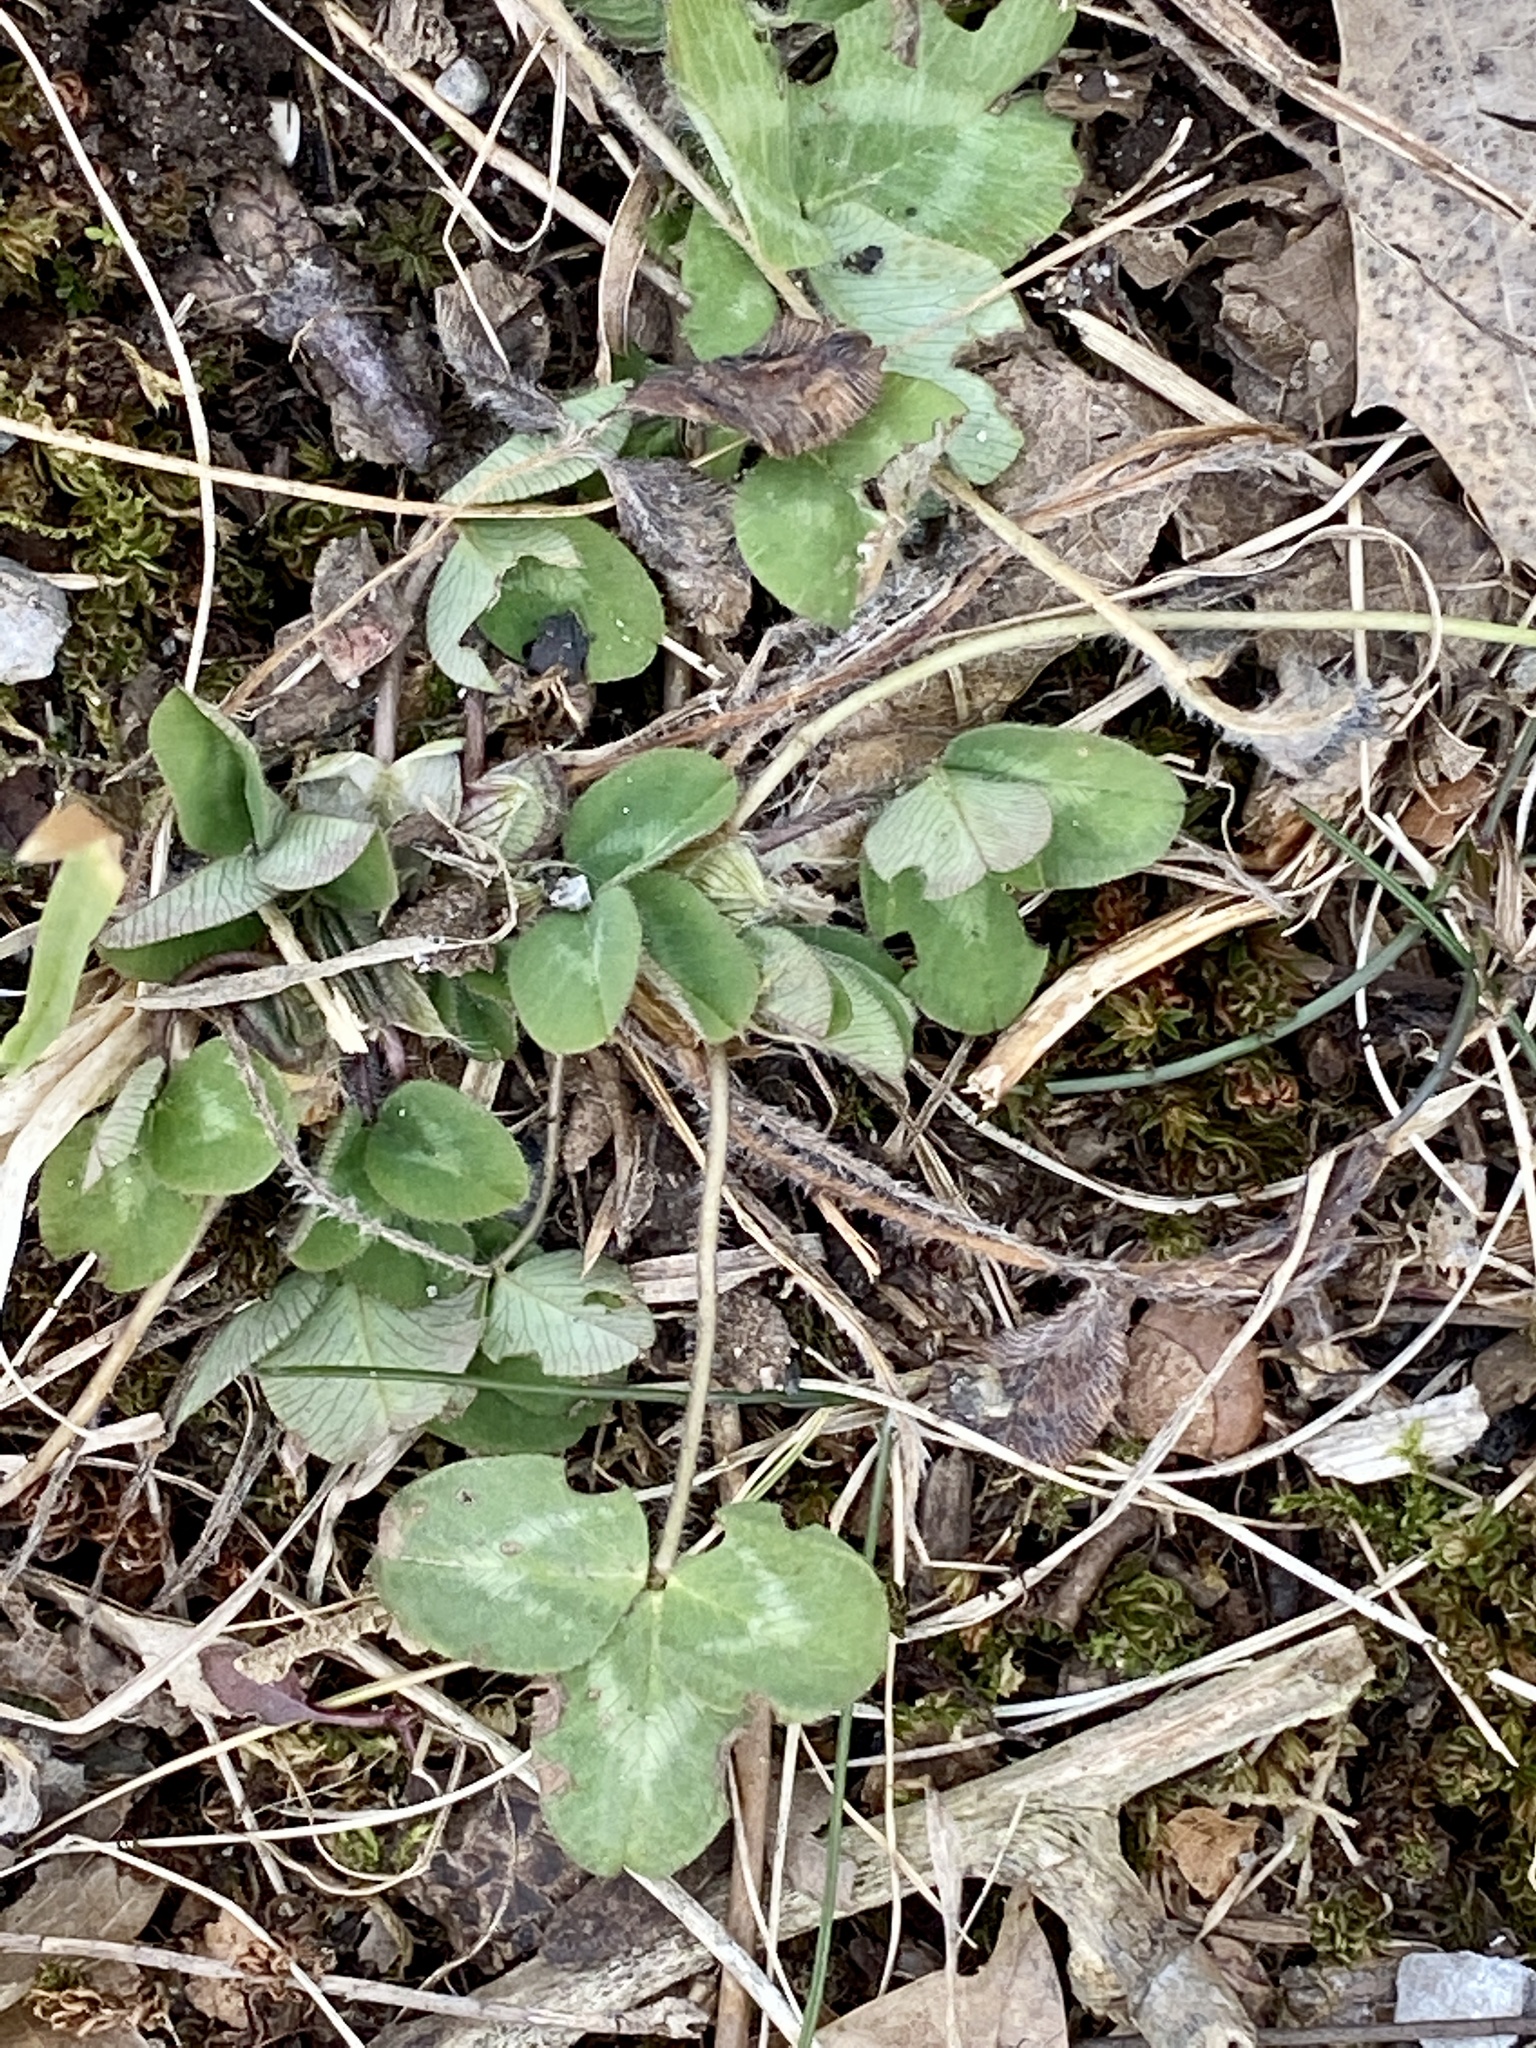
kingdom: Plantae
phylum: Tracheophyta
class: Magnoliopsida
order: Fabales
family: Fabaceae
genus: Trifolium
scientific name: Trifolium pratense
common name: Red clover
